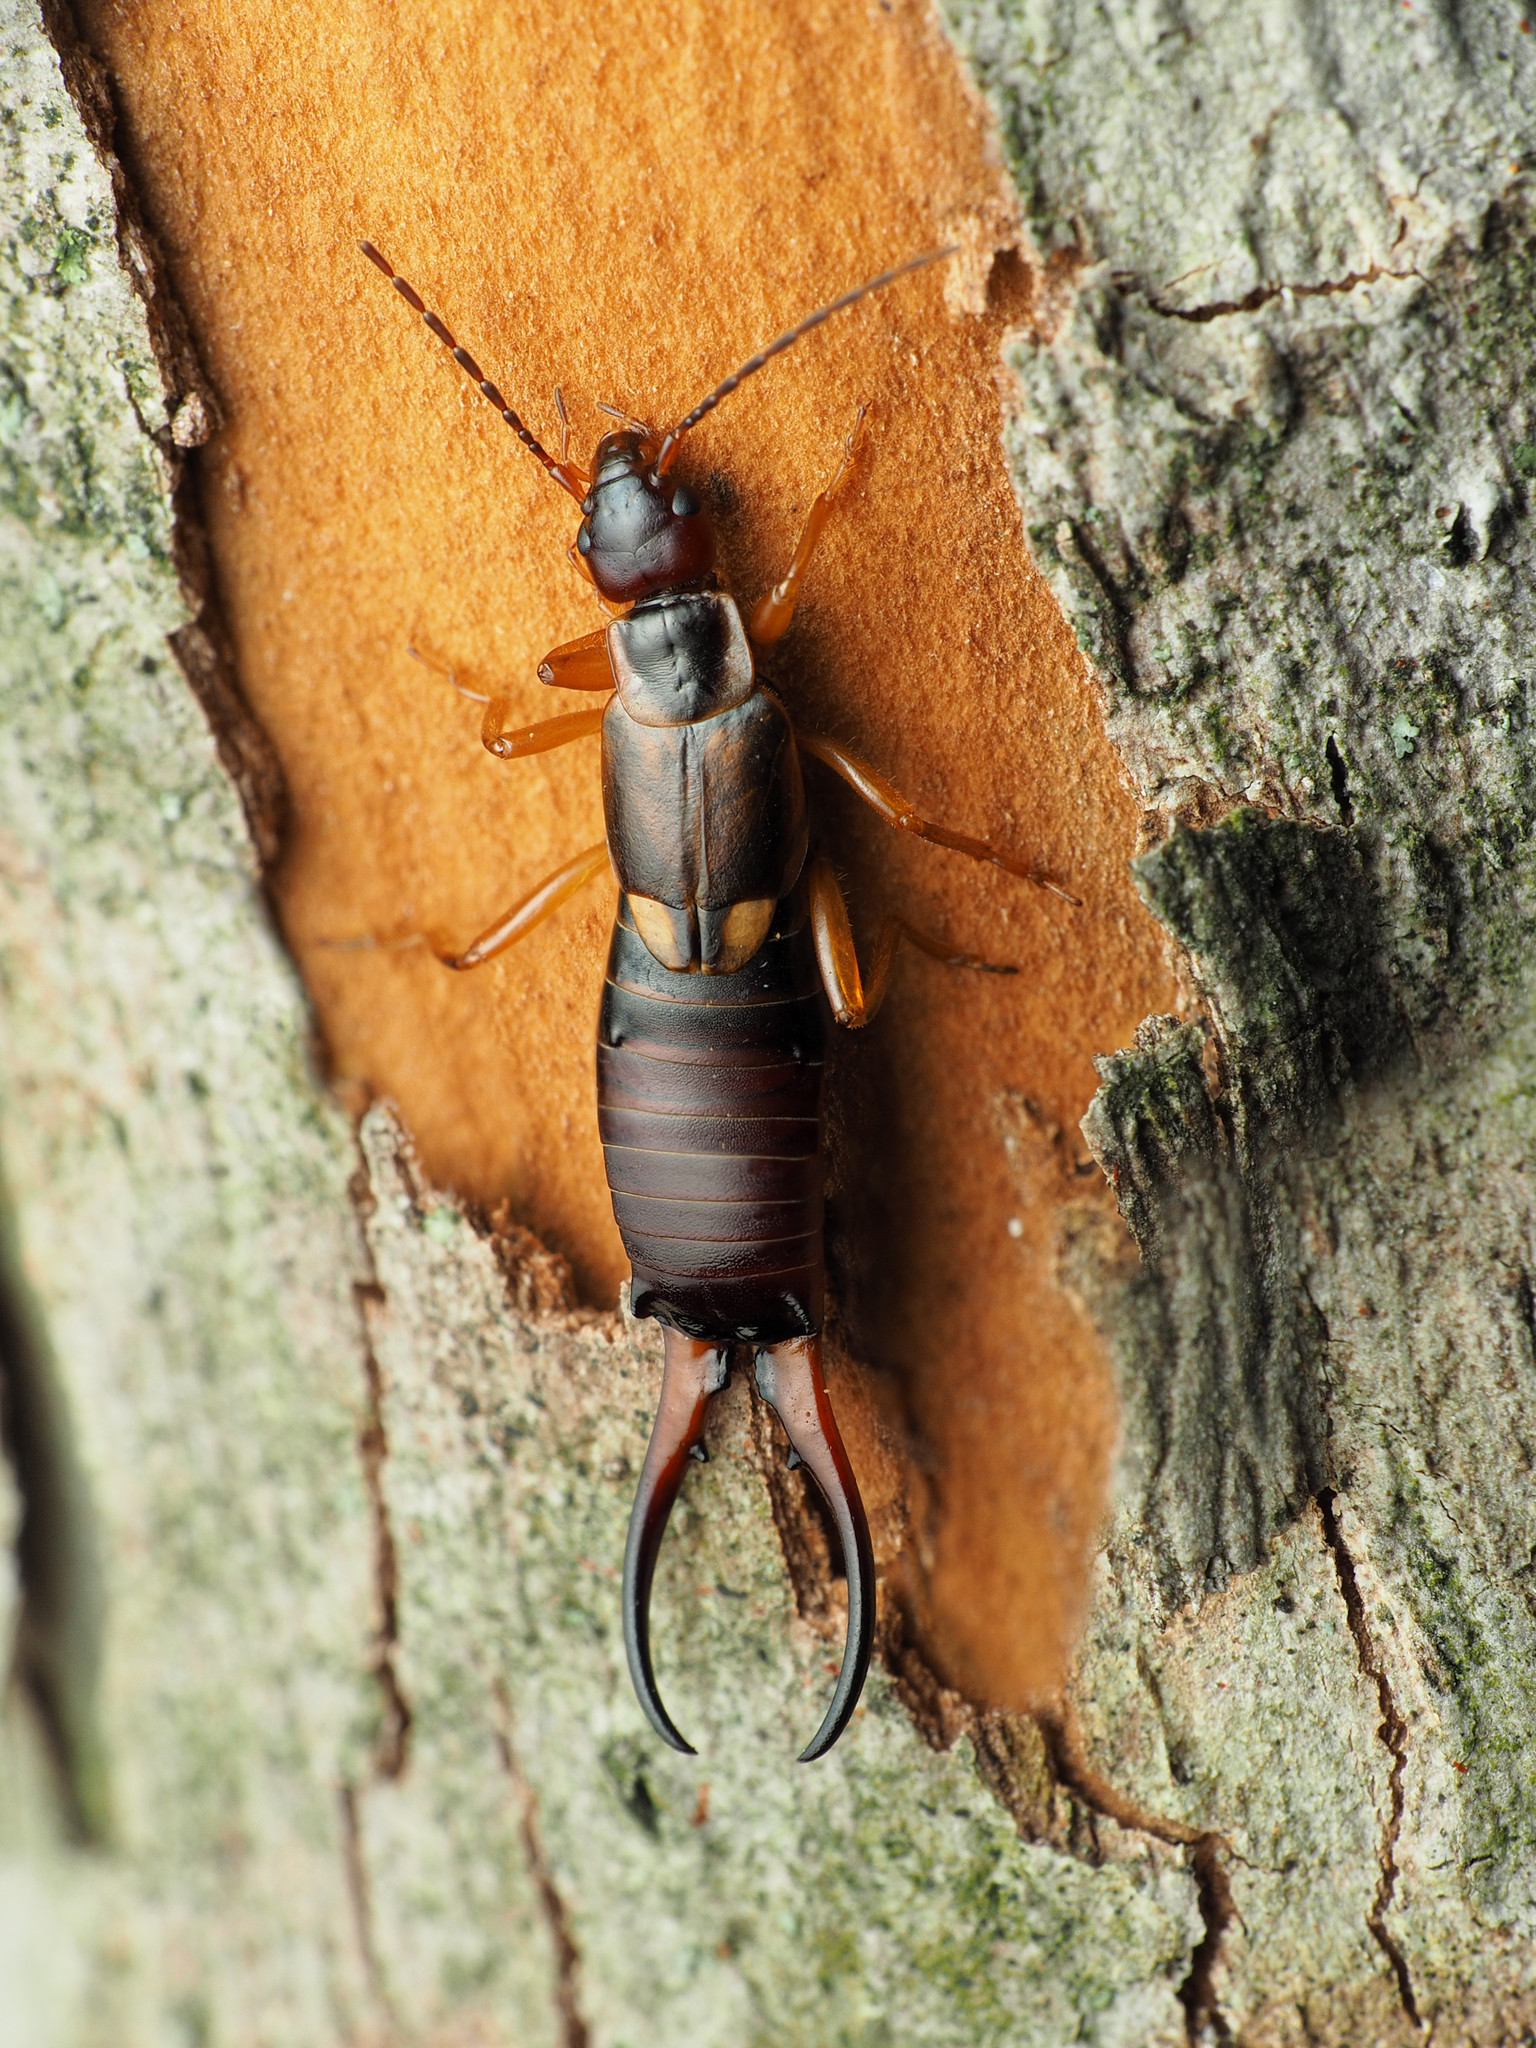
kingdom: Animalia
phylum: Arthropoda
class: Insecta
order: Dermaptera
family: Forficulidae
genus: Forficula
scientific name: Forficula
